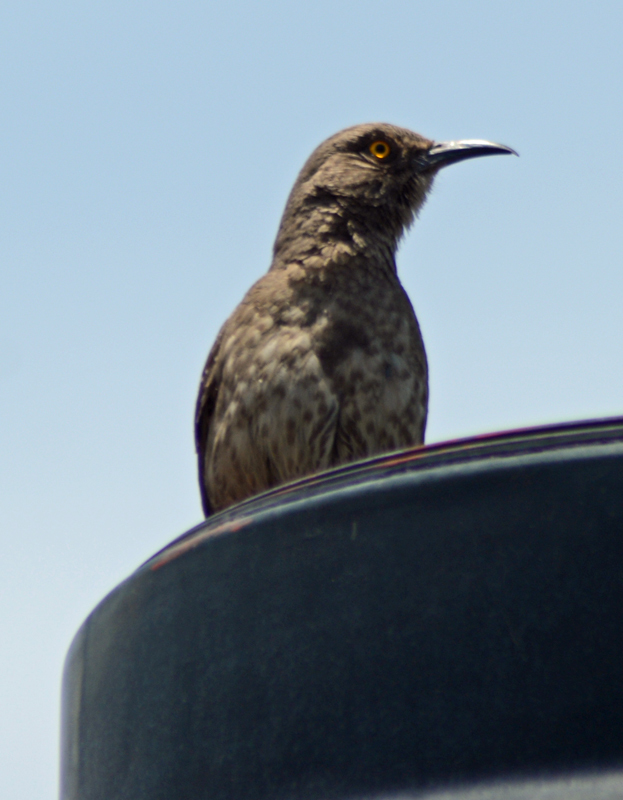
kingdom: Animalia
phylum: Chordata
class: Aves
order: Passeriformes
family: Mimidae
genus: Toxostoma
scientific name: Toxostoma curvirostre
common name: Curve-billed thrasher
